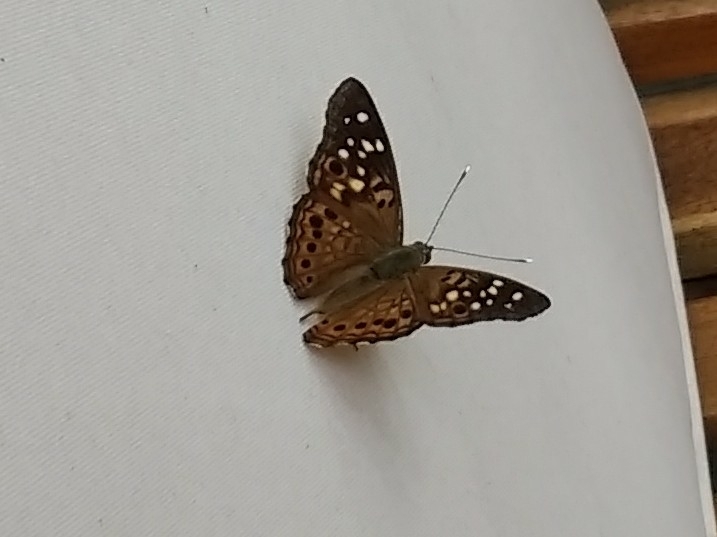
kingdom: Animalia
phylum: Arthropoda
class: Insecta
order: Lepidoptera
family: Nymphalidae
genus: Asterocampa
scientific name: Asterocampa celtis
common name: Hackberry emperor
